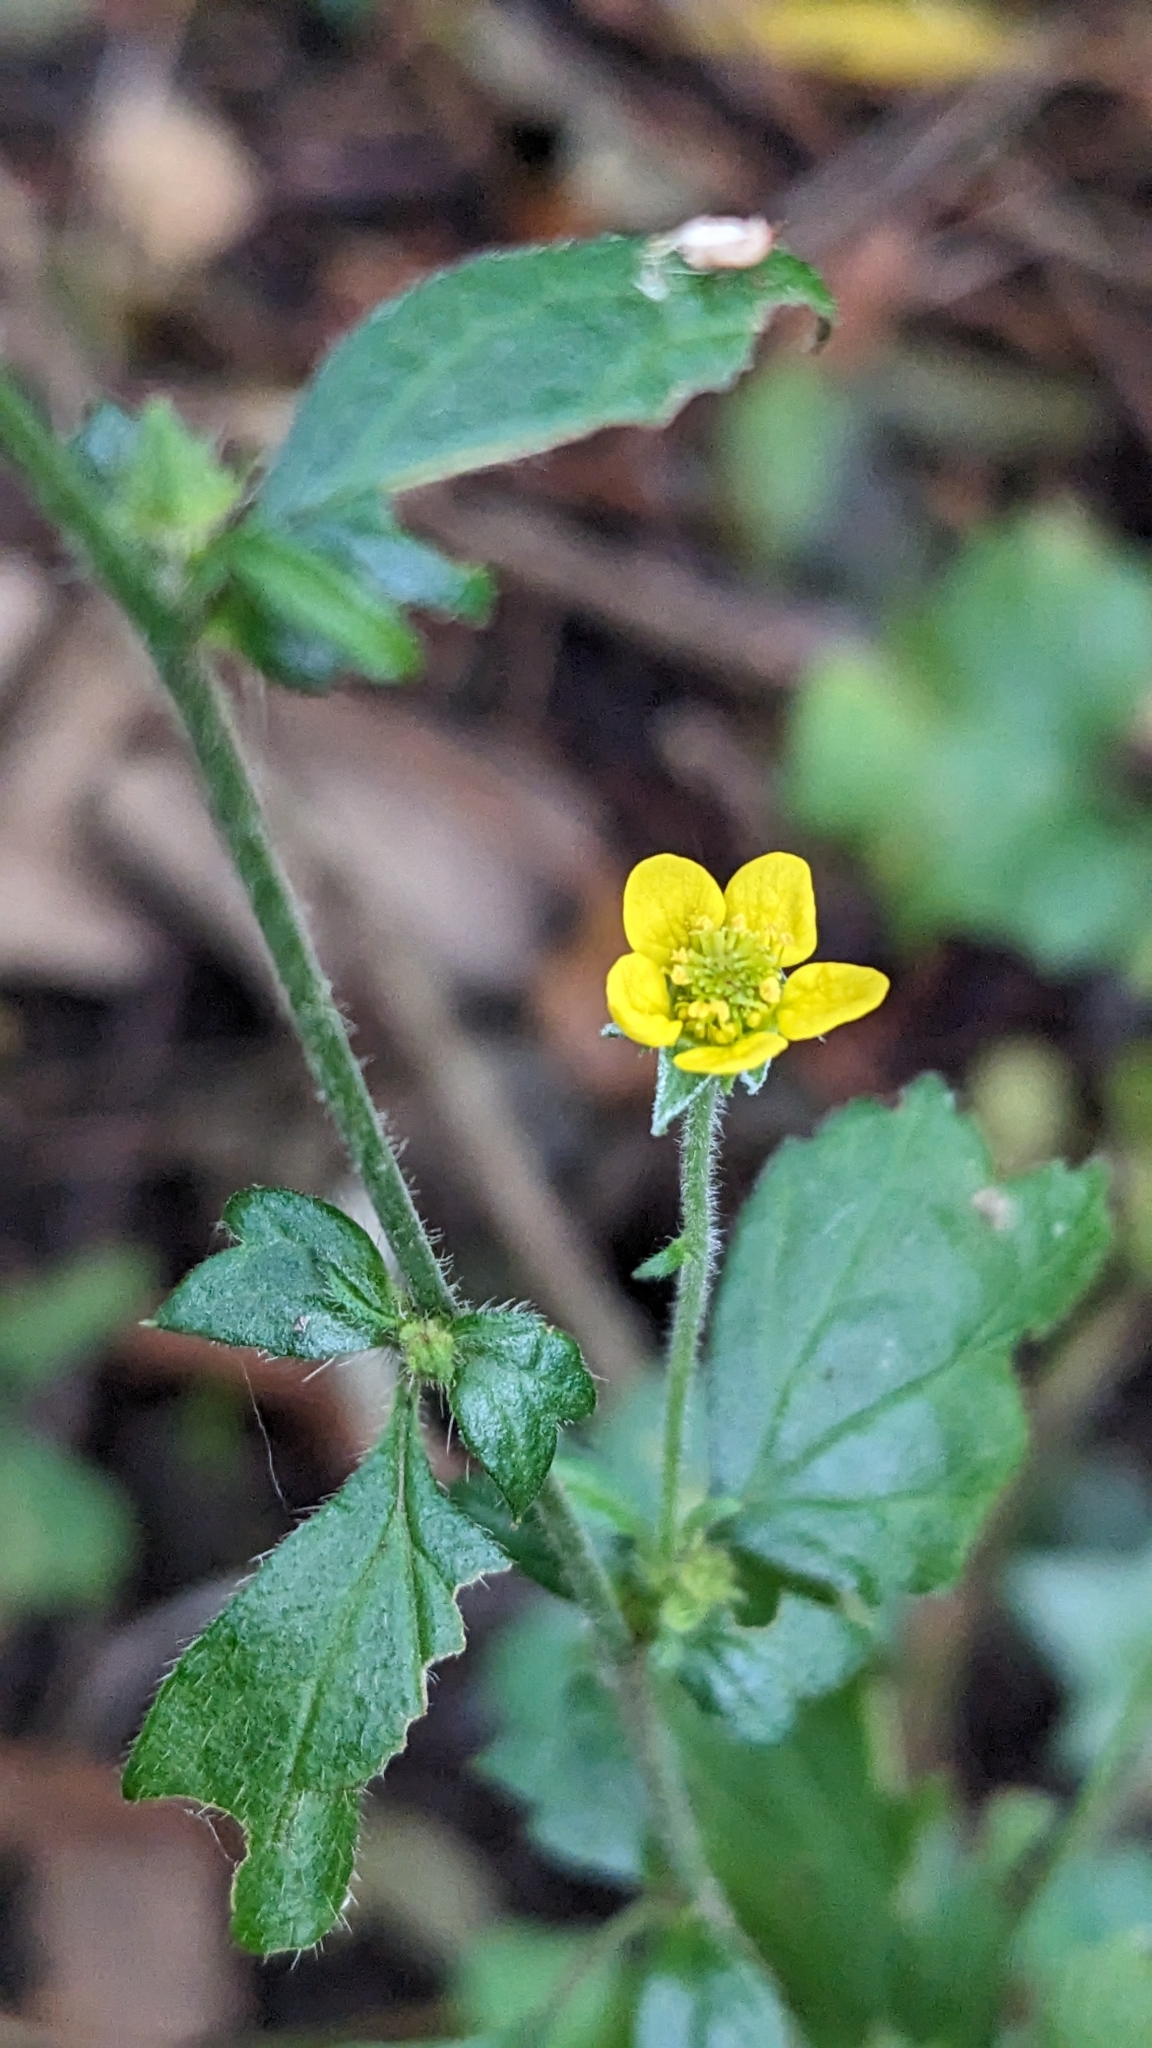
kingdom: Plantae
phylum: Tracheophyta
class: Magnoliopsida
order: Rosales
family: Rosaceae
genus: Geum
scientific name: Geum urbanum
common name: Wood avens
